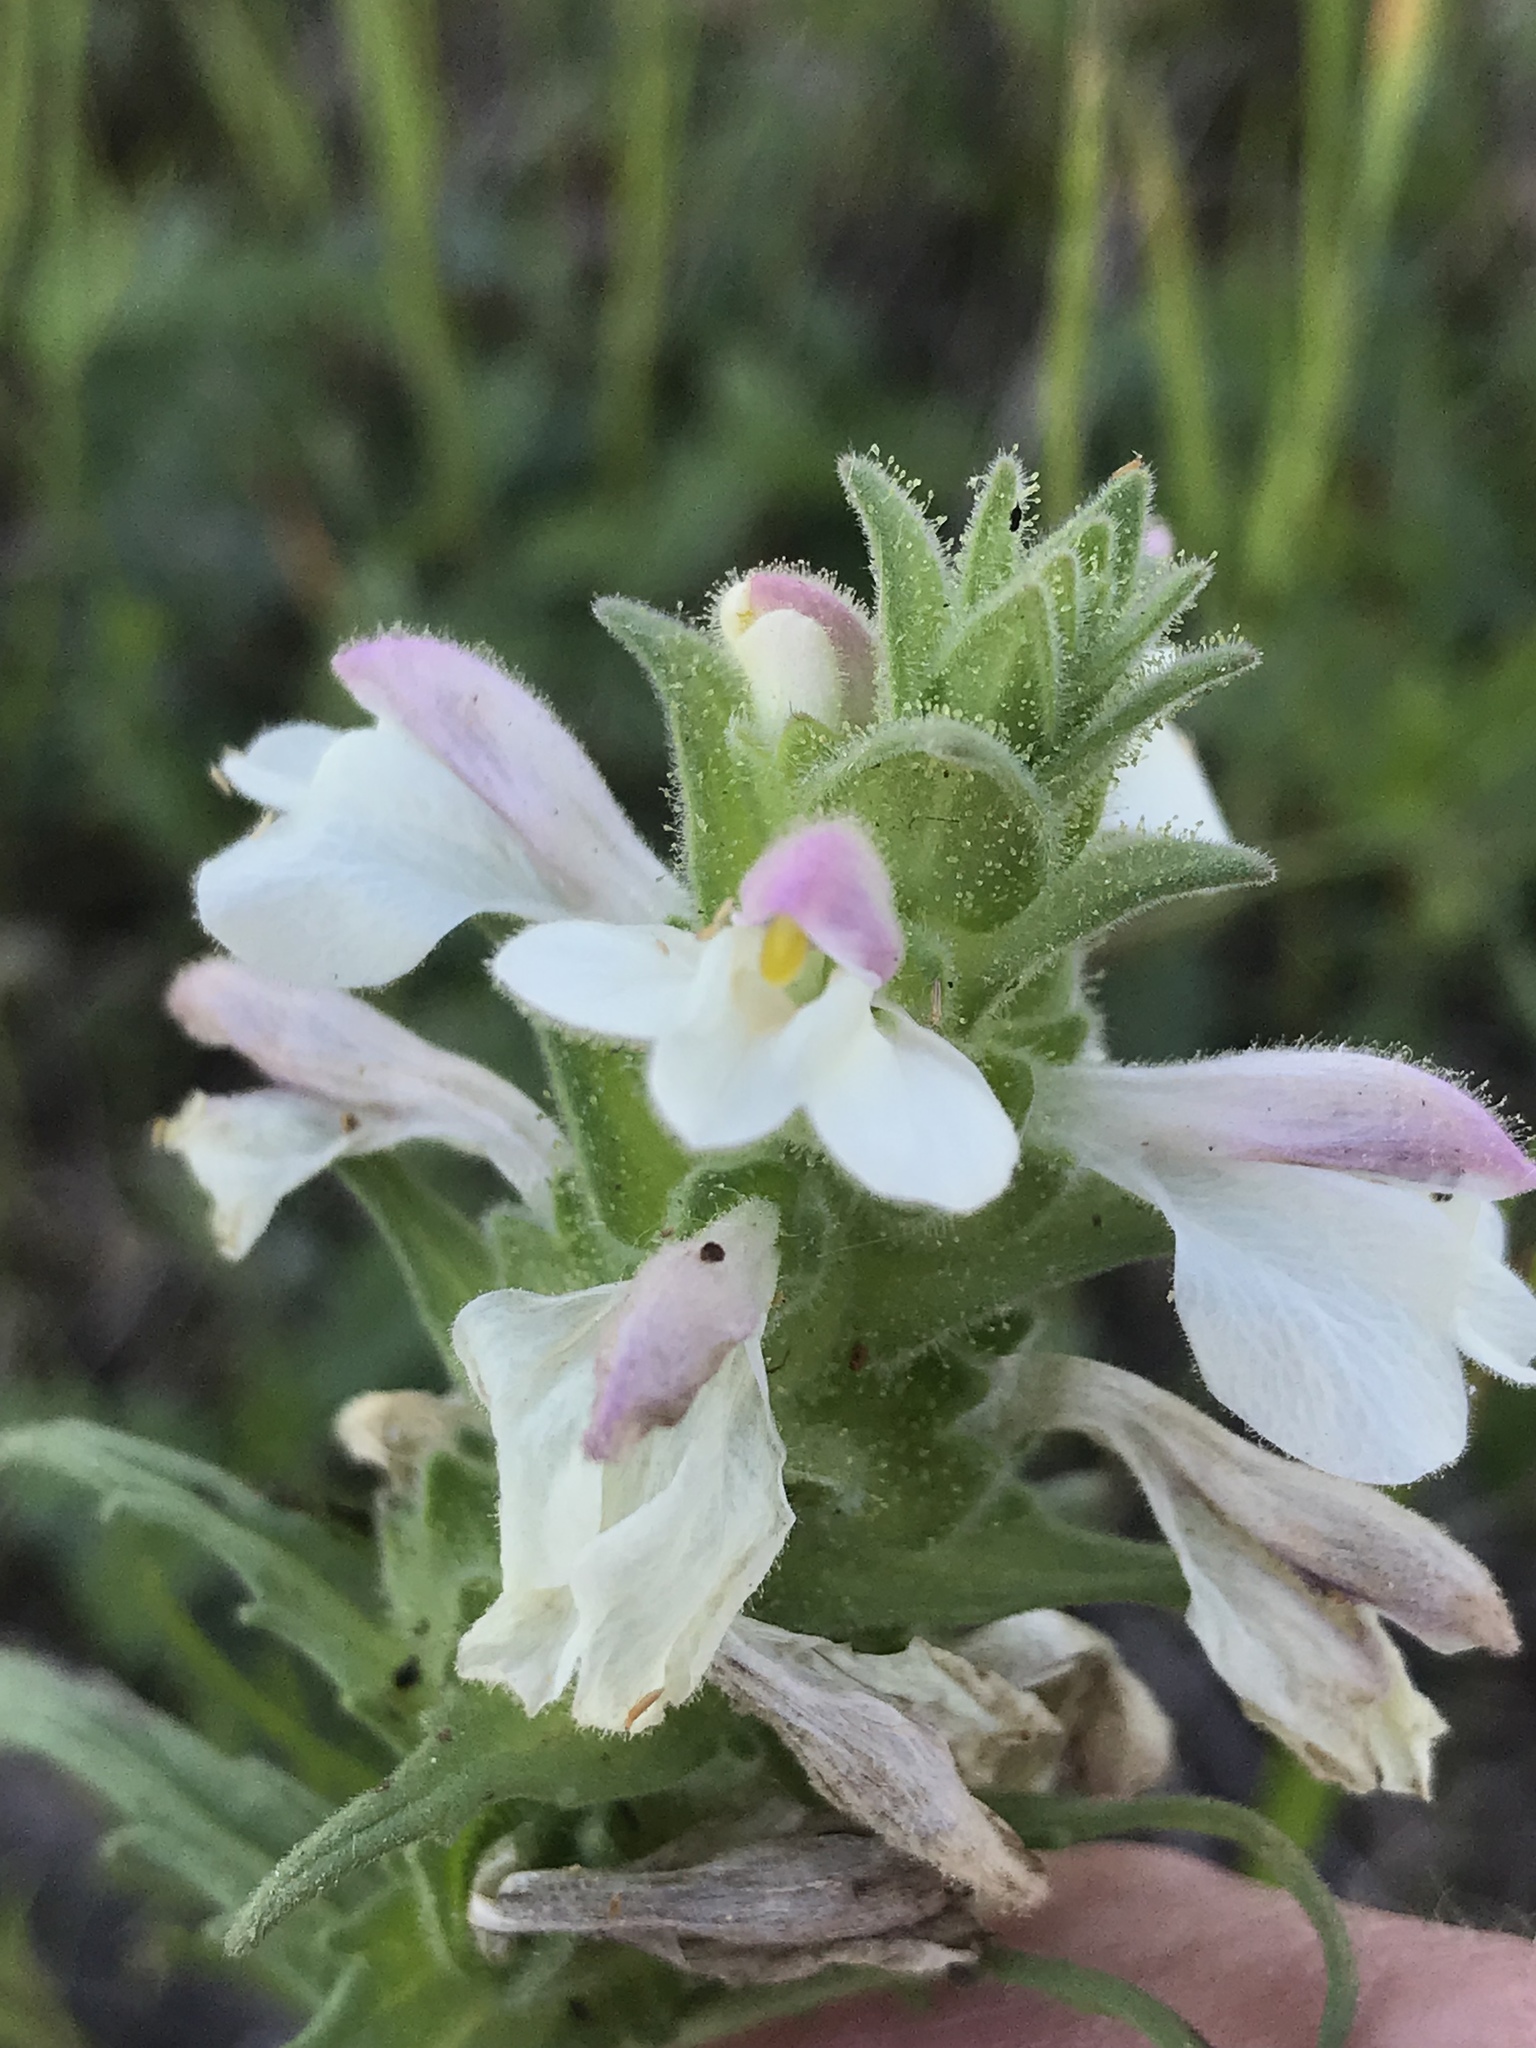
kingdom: Plantae
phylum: Tracheophyta
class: Magnoliopsida
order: Lamiales
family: Orobanchaceae
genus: Bellardia
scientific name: Bellardia trixago
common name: Mediterranean lineseed
